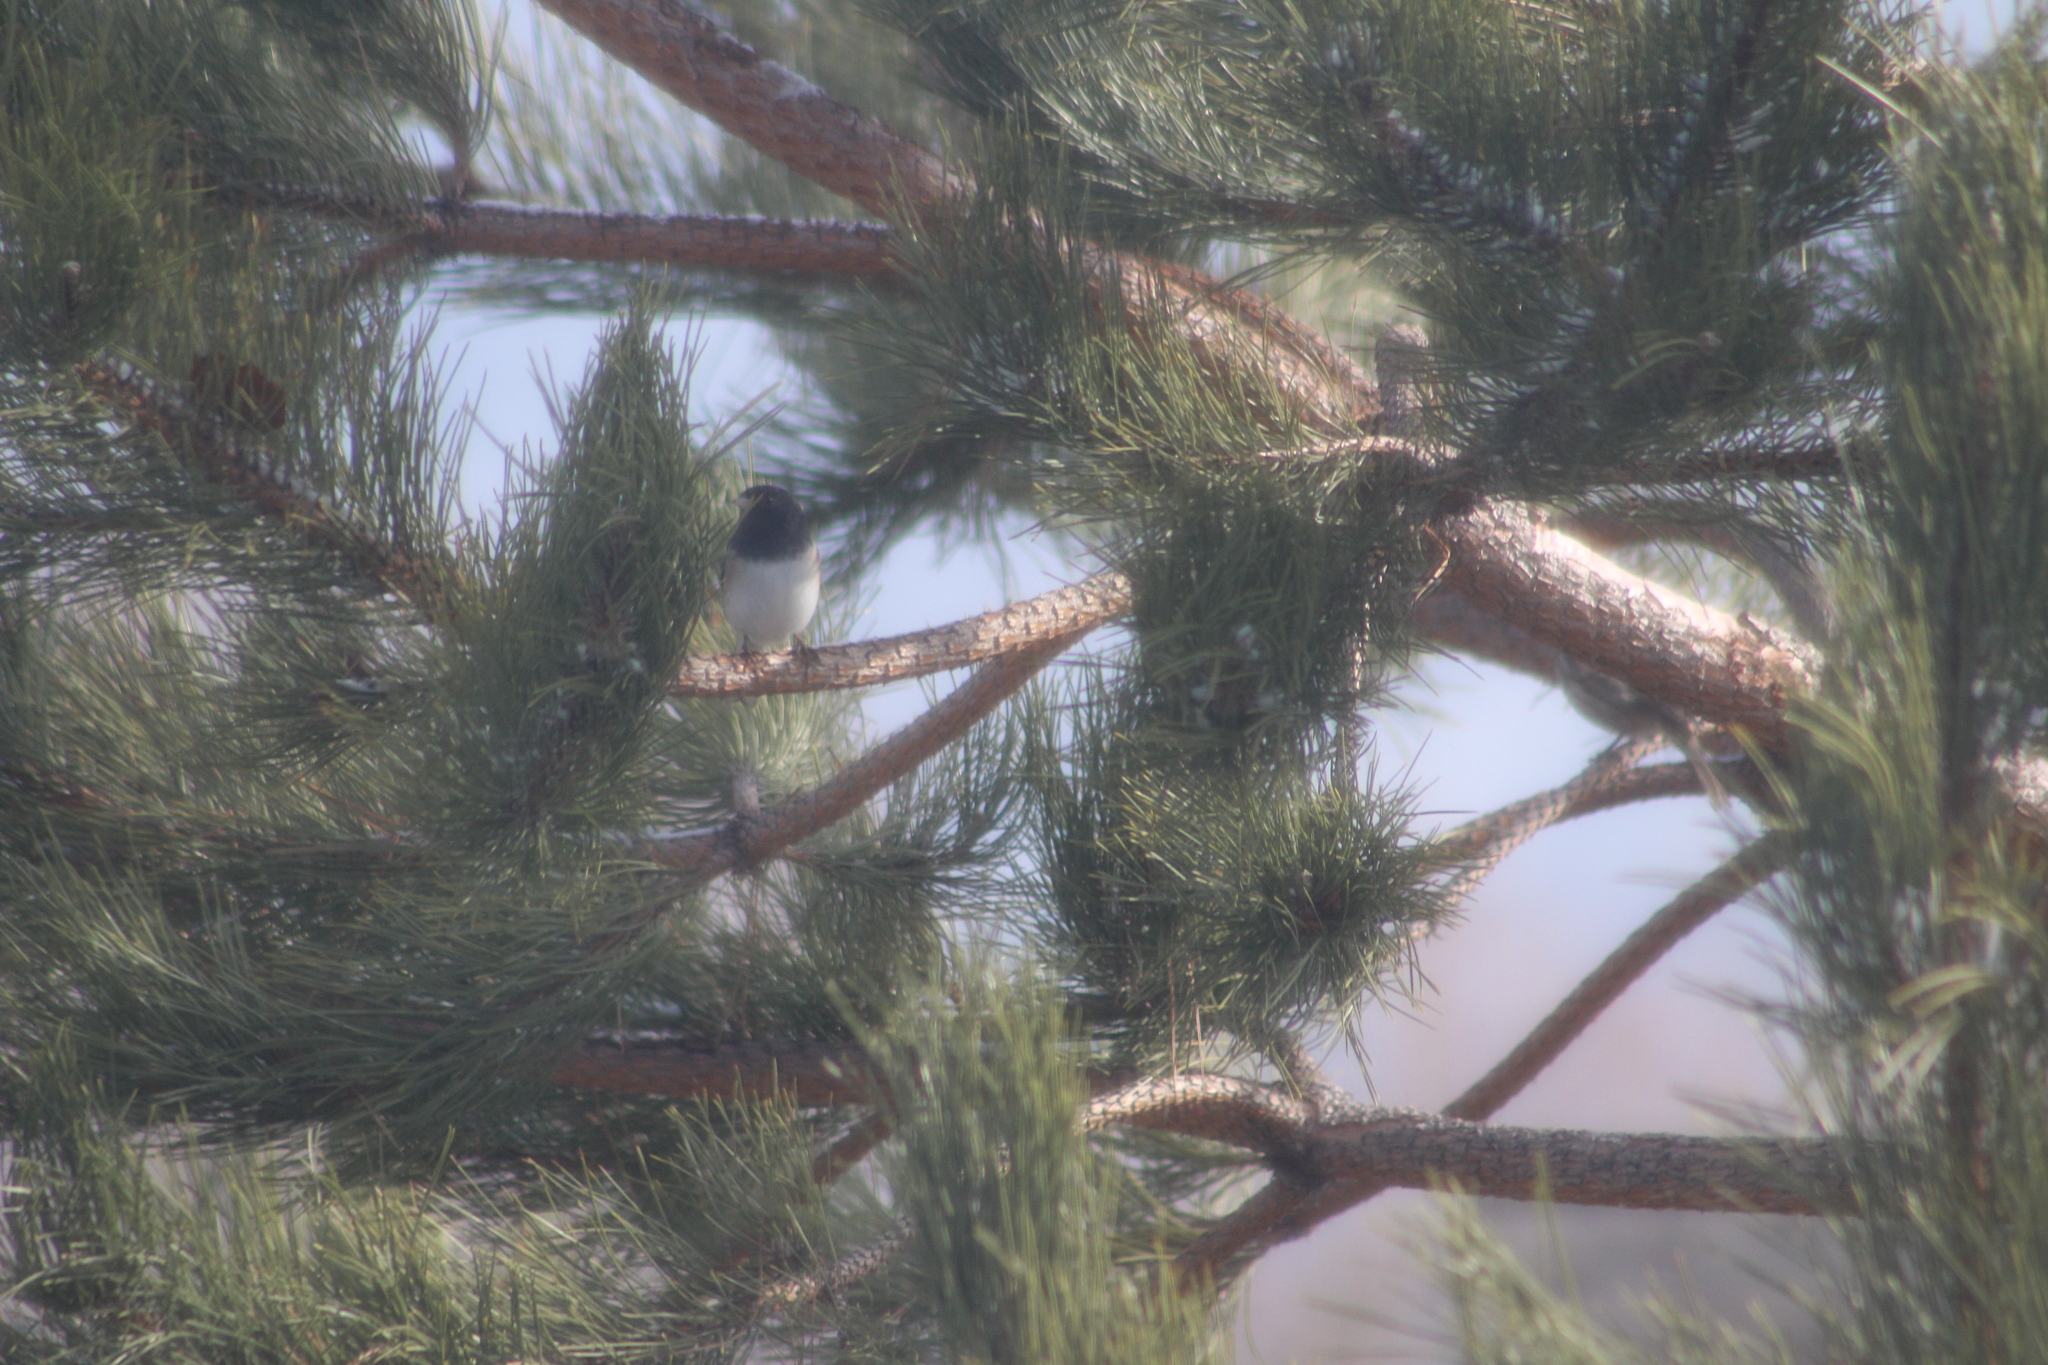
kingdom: Animalia
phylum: Chordata
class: Aves
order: Passeriformes
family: Passerellidae
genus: Junco
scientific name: Junco hyemalis
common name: Dark-eyed junco
